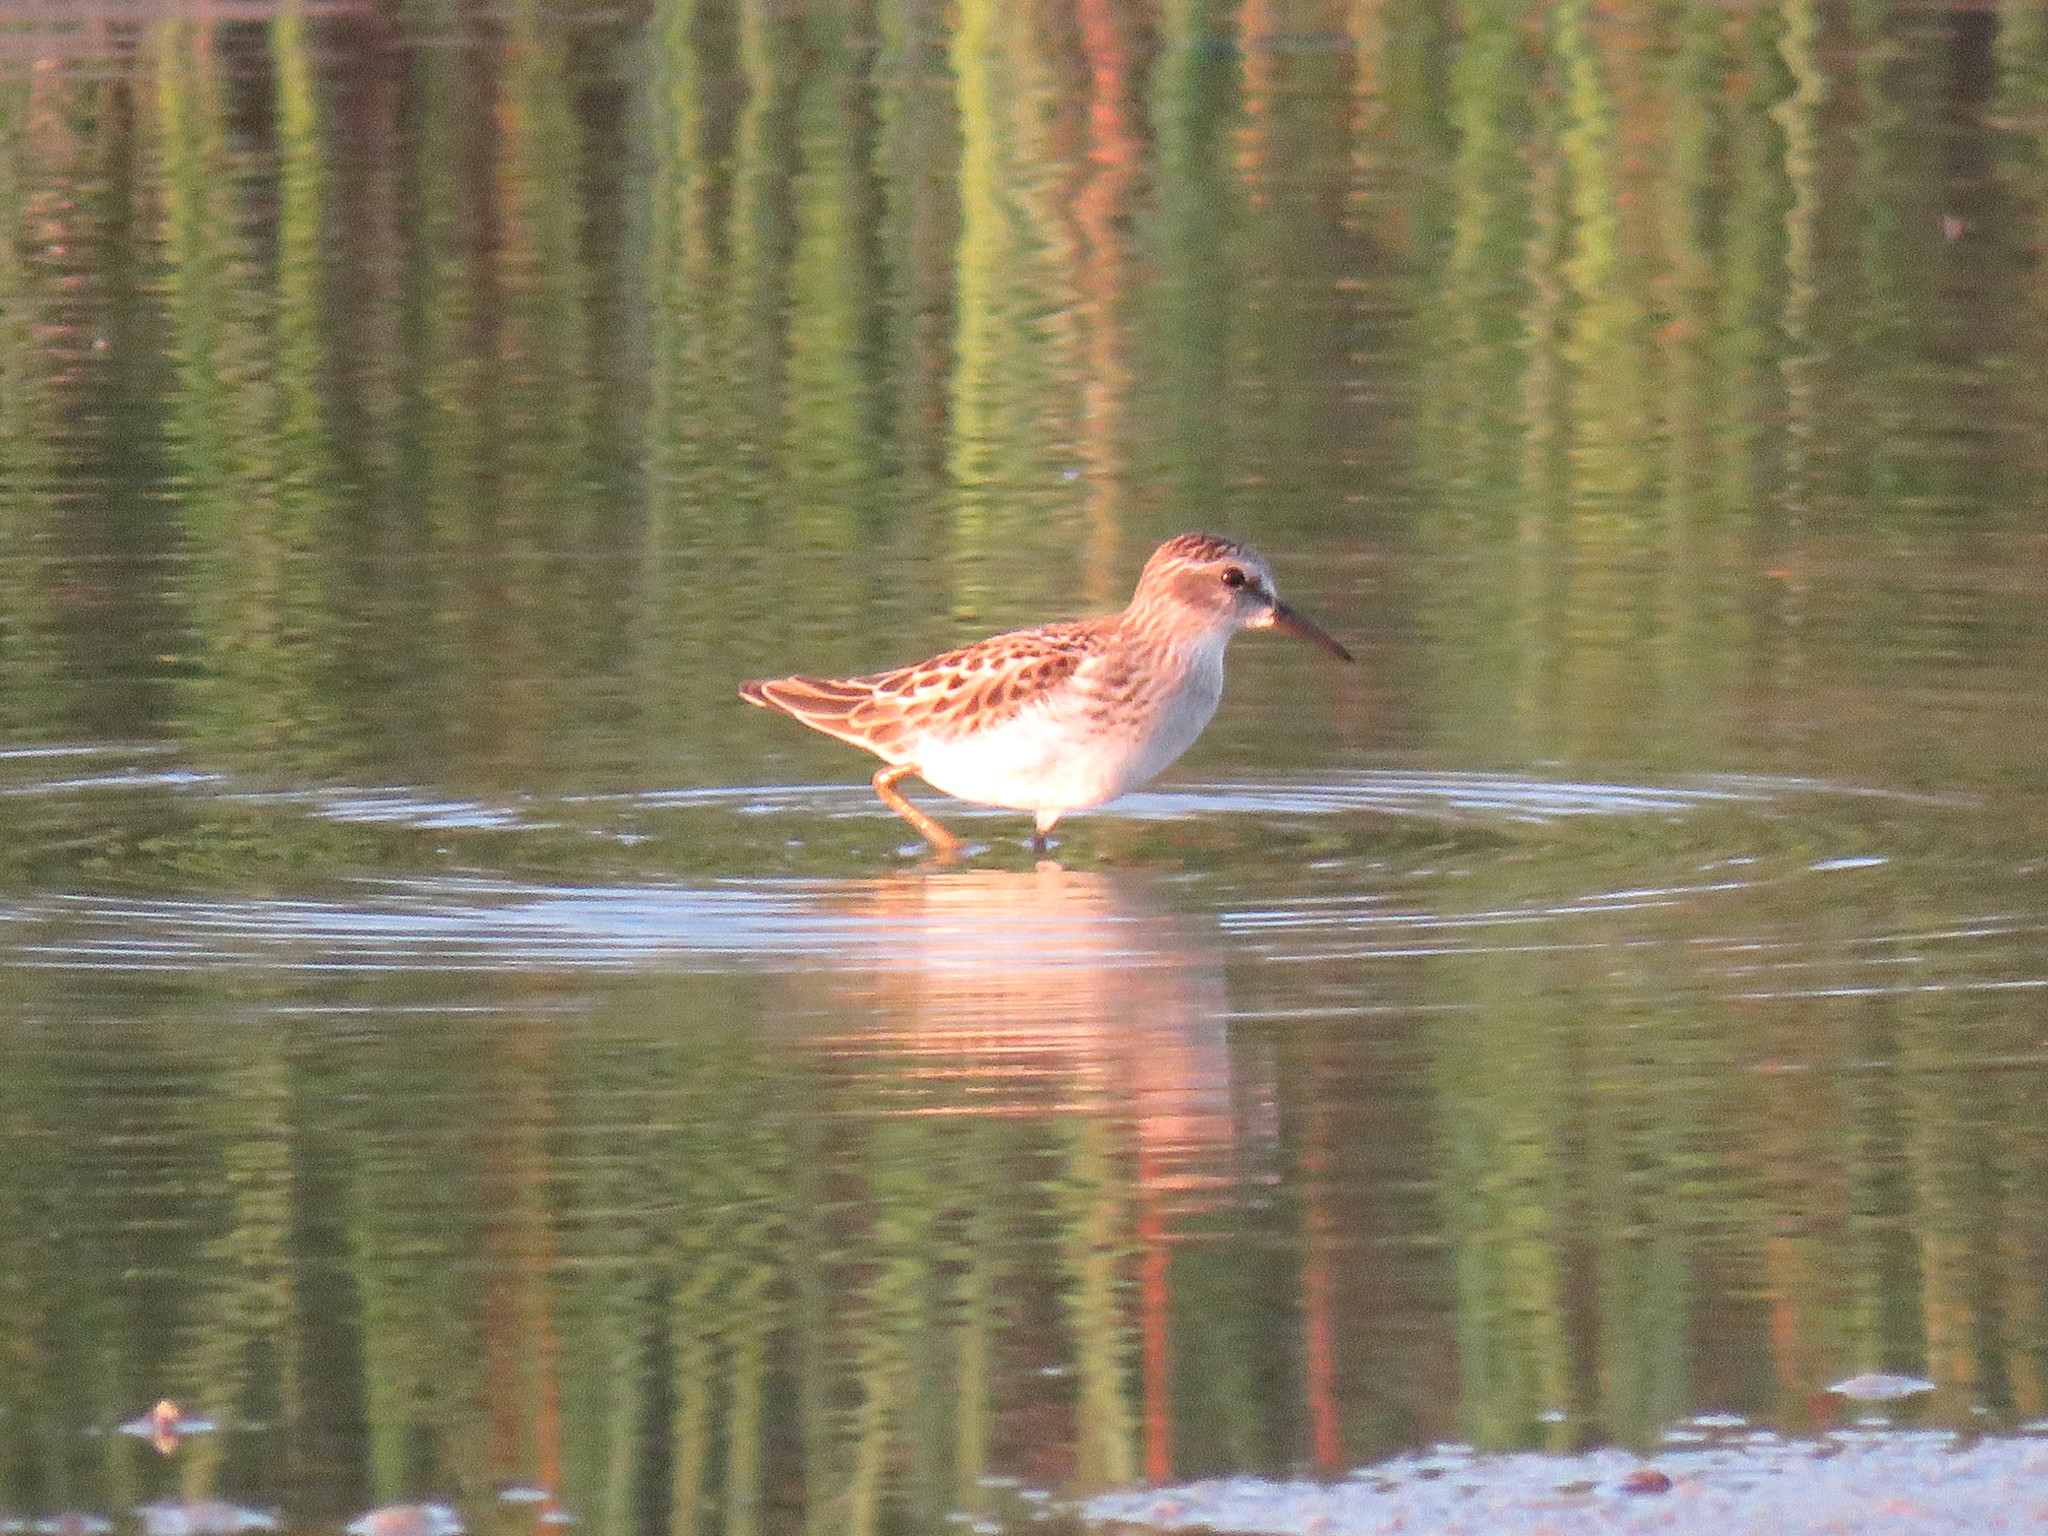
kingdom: Animalia
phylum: Chordata
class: Aves
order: Charadriiformes
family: Scolopacidae
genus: Calidris
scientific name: Calidris minutilla
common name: Least sandpiper
